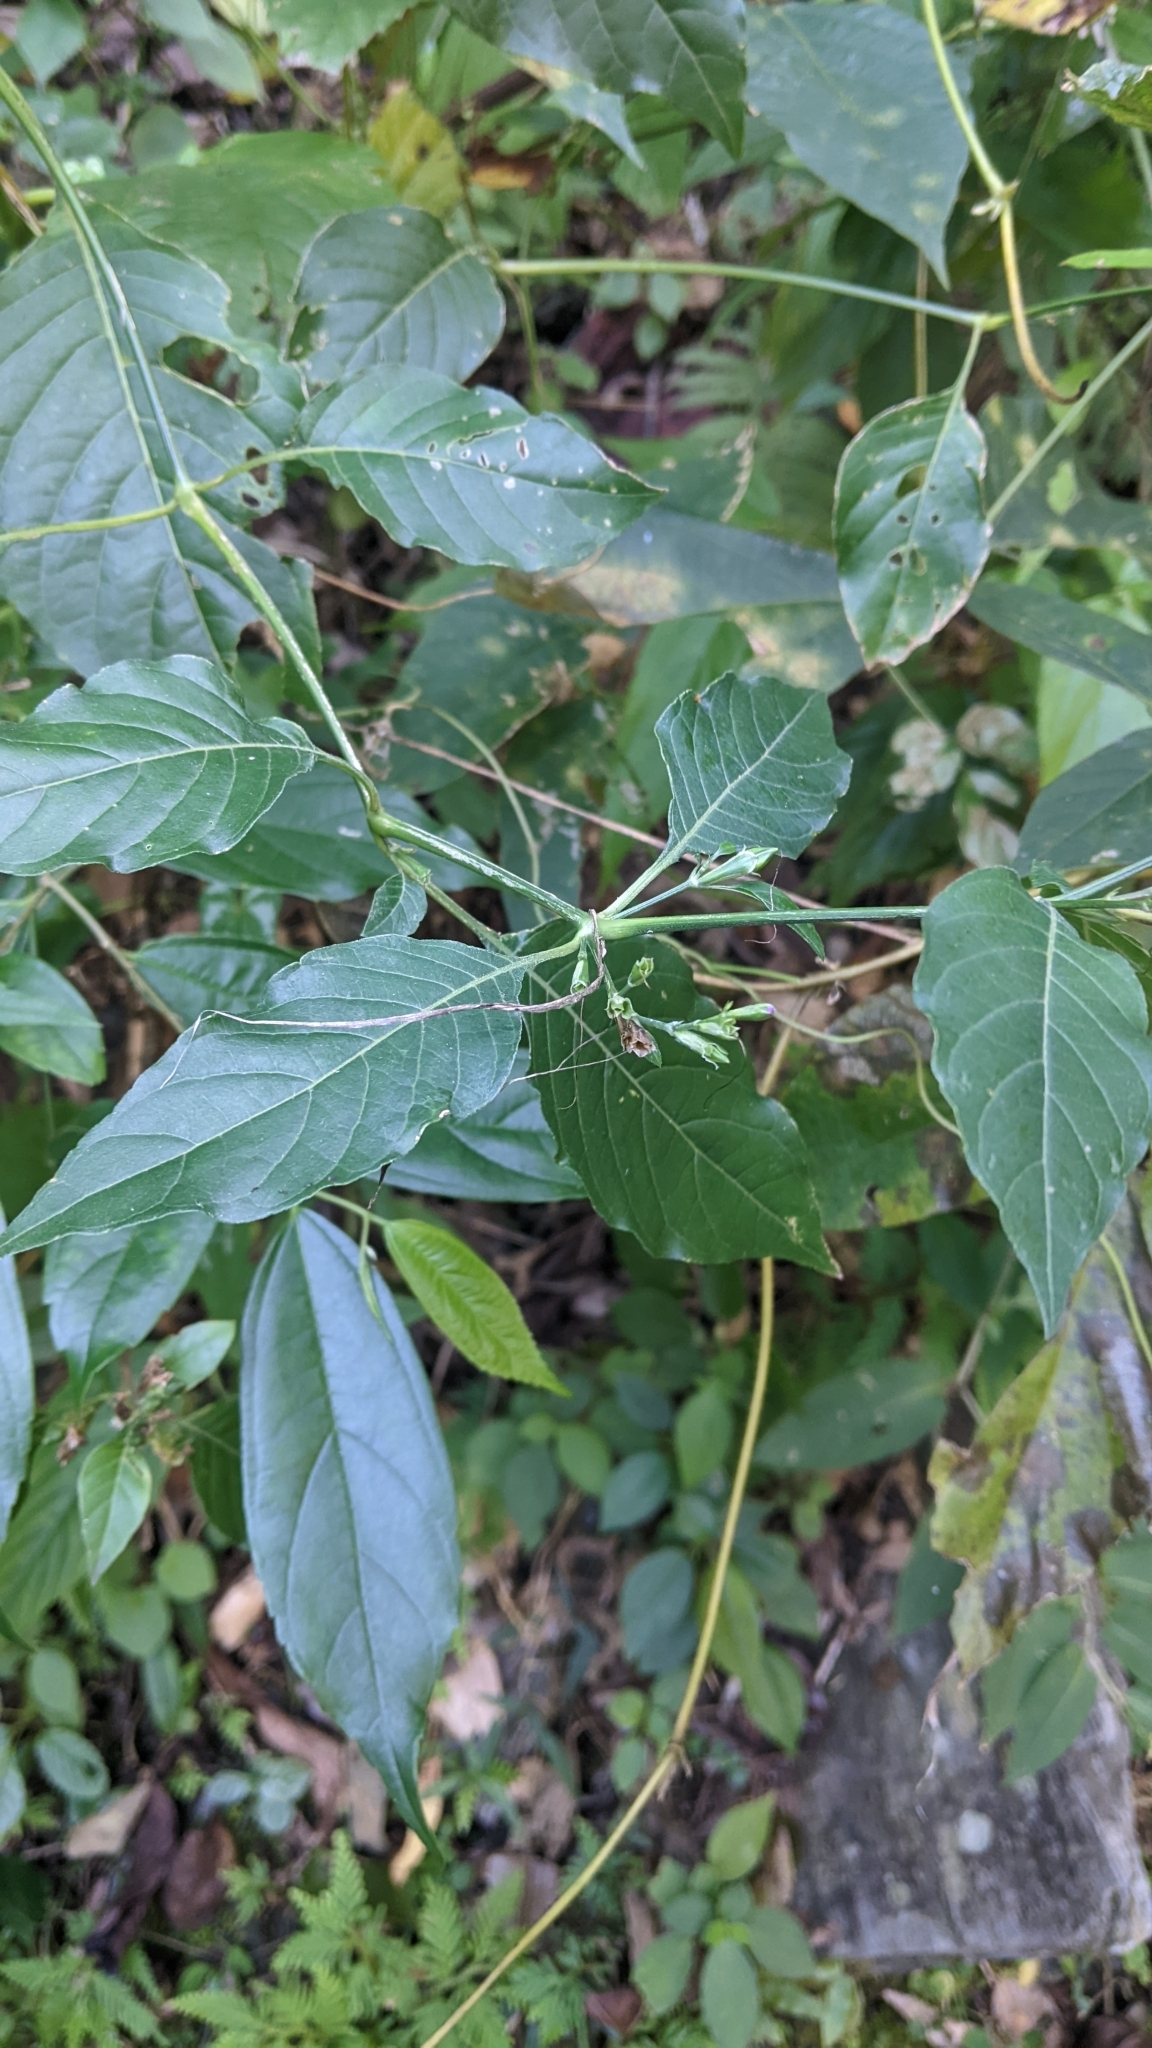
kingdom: Plantae
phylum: Tracheophyta
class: Magnoliopsida
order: Lamiales
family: Acanthaceae
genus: Hypoestes
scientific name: Hypoestes purpurea
